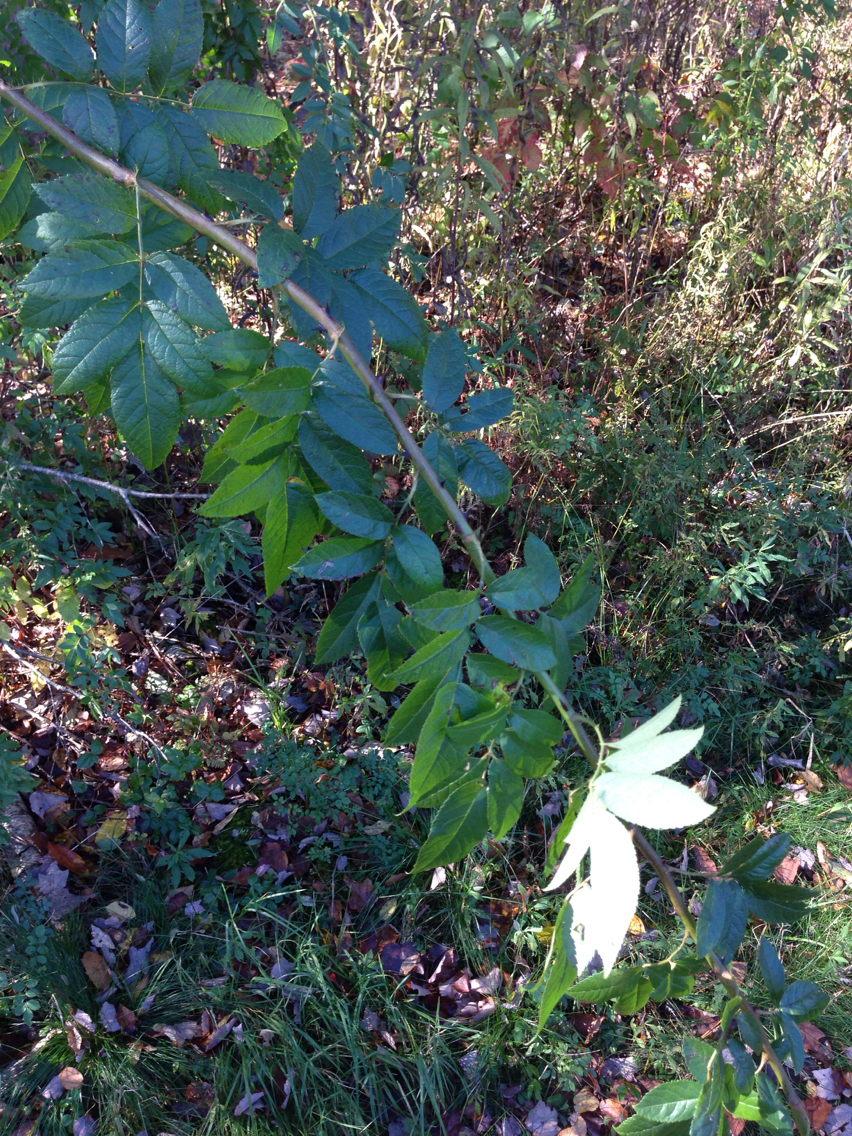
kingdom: Plantae
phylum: Tracheophyta
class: Magnoliopsida
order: Rosales
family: Rosaceae
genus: Rosa
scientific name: Rosa multiflora
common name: Multiflora rose
